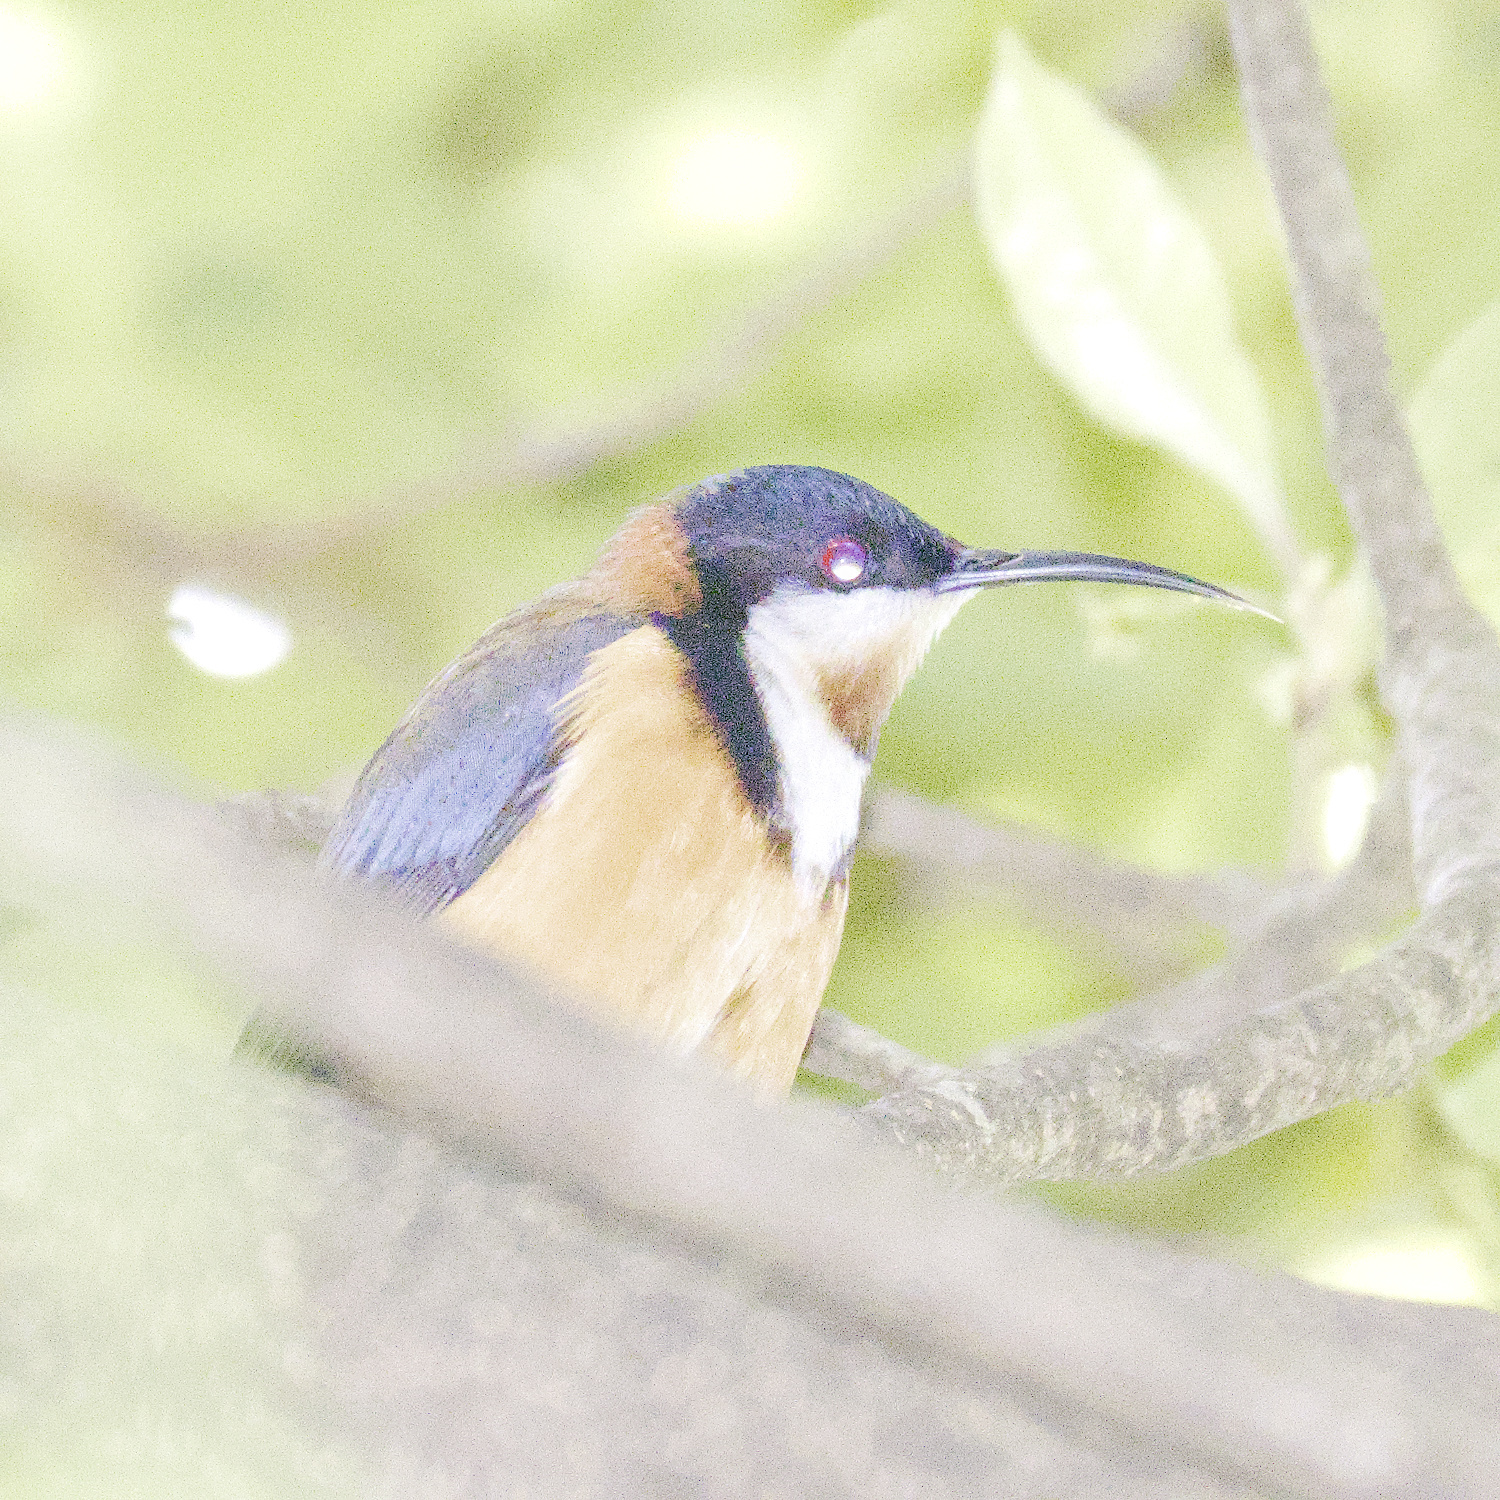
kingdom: Animalia
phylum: Chordata
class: Aves
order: Passeriformes
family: Meliphagidae
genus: Acanthorhynchus
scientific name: Acanthorhynchus tenuirostris
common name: Eastern spinebill
